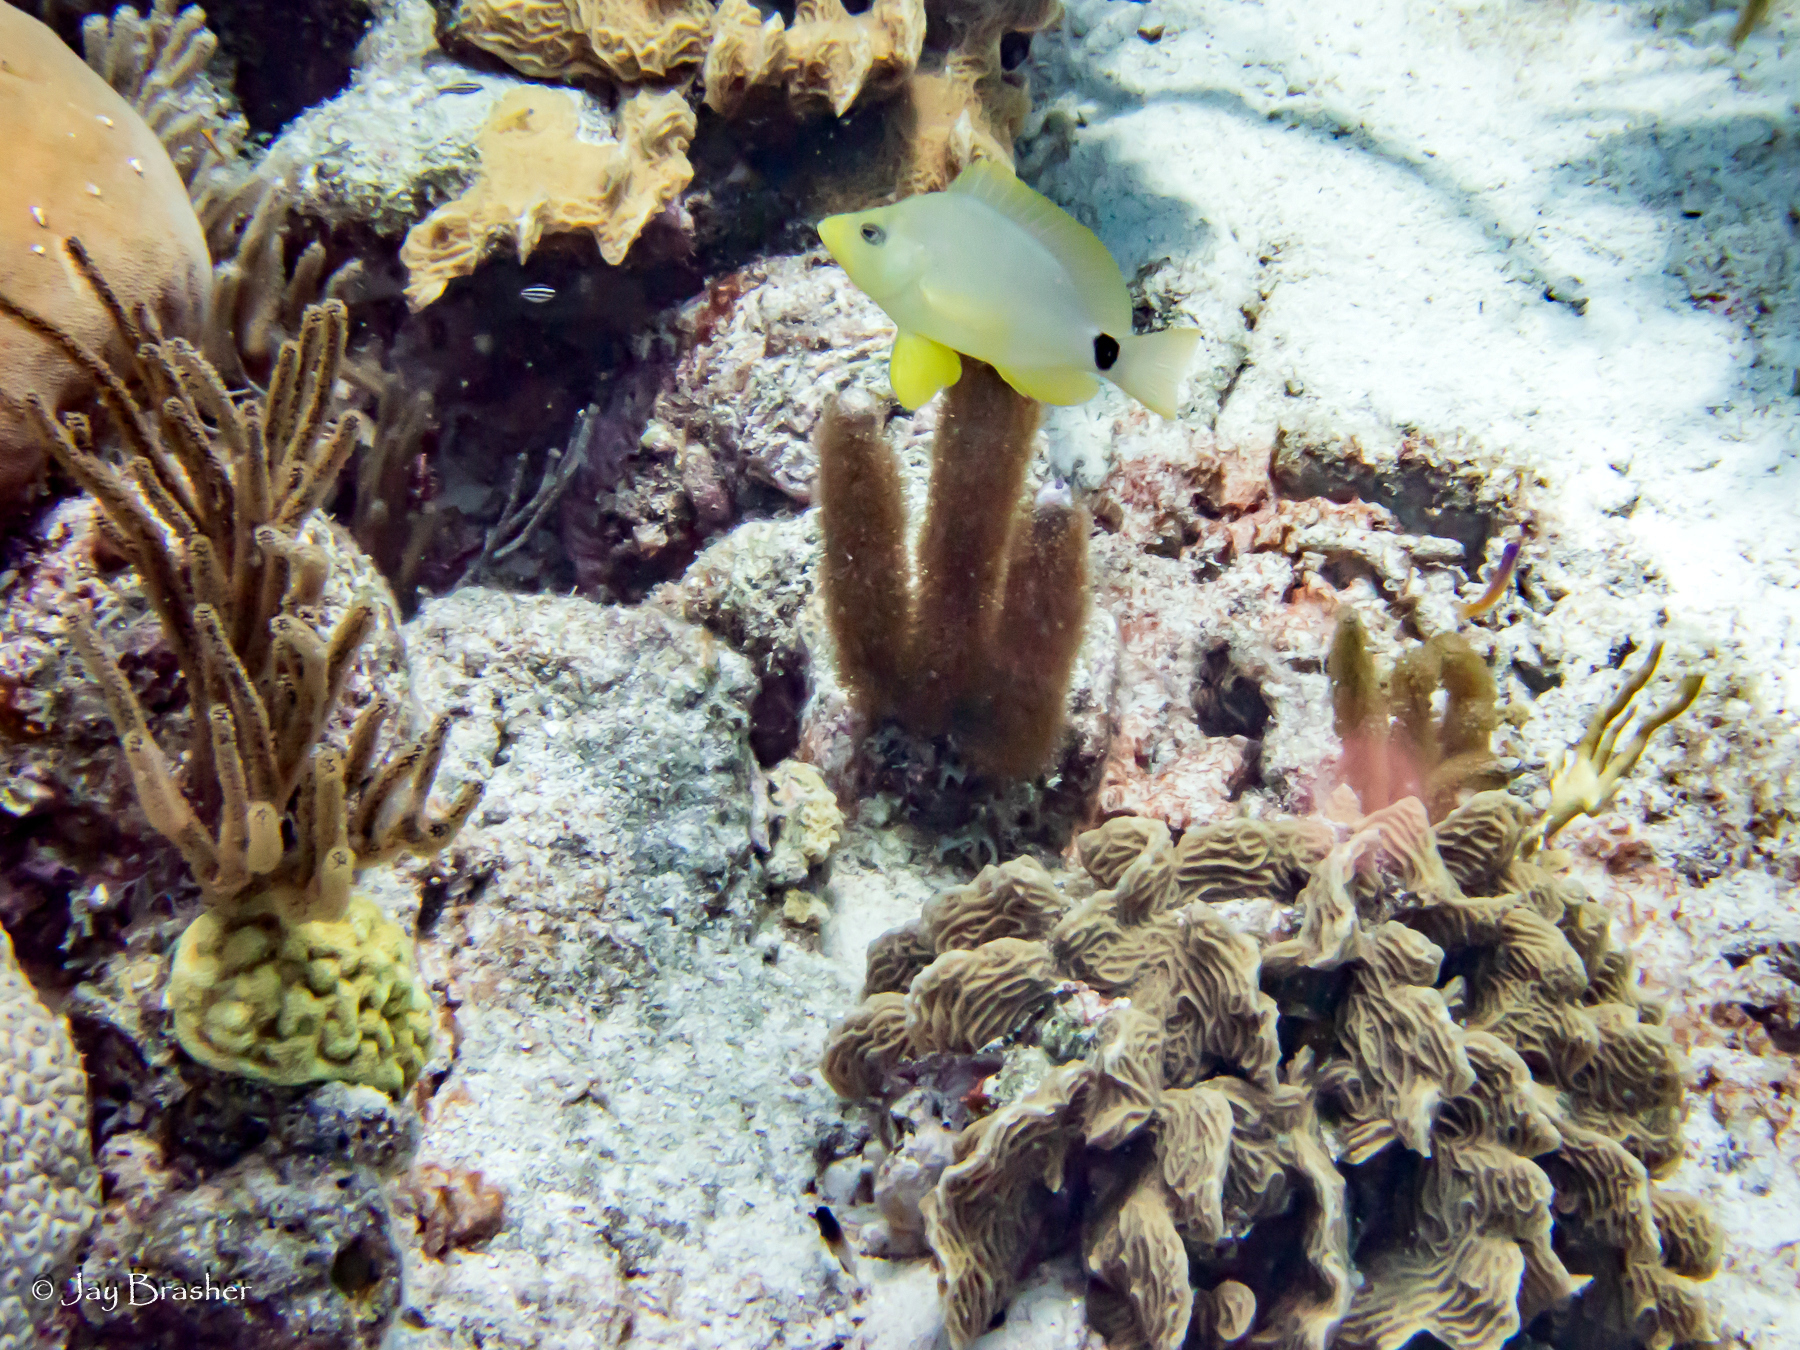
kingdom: Animalia
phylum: Cnidaria
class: Anthozoa
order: Scleractinia
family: Agariciidae
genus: Agaricia
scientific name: Agaricia agaricites
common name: Lettuce coral
